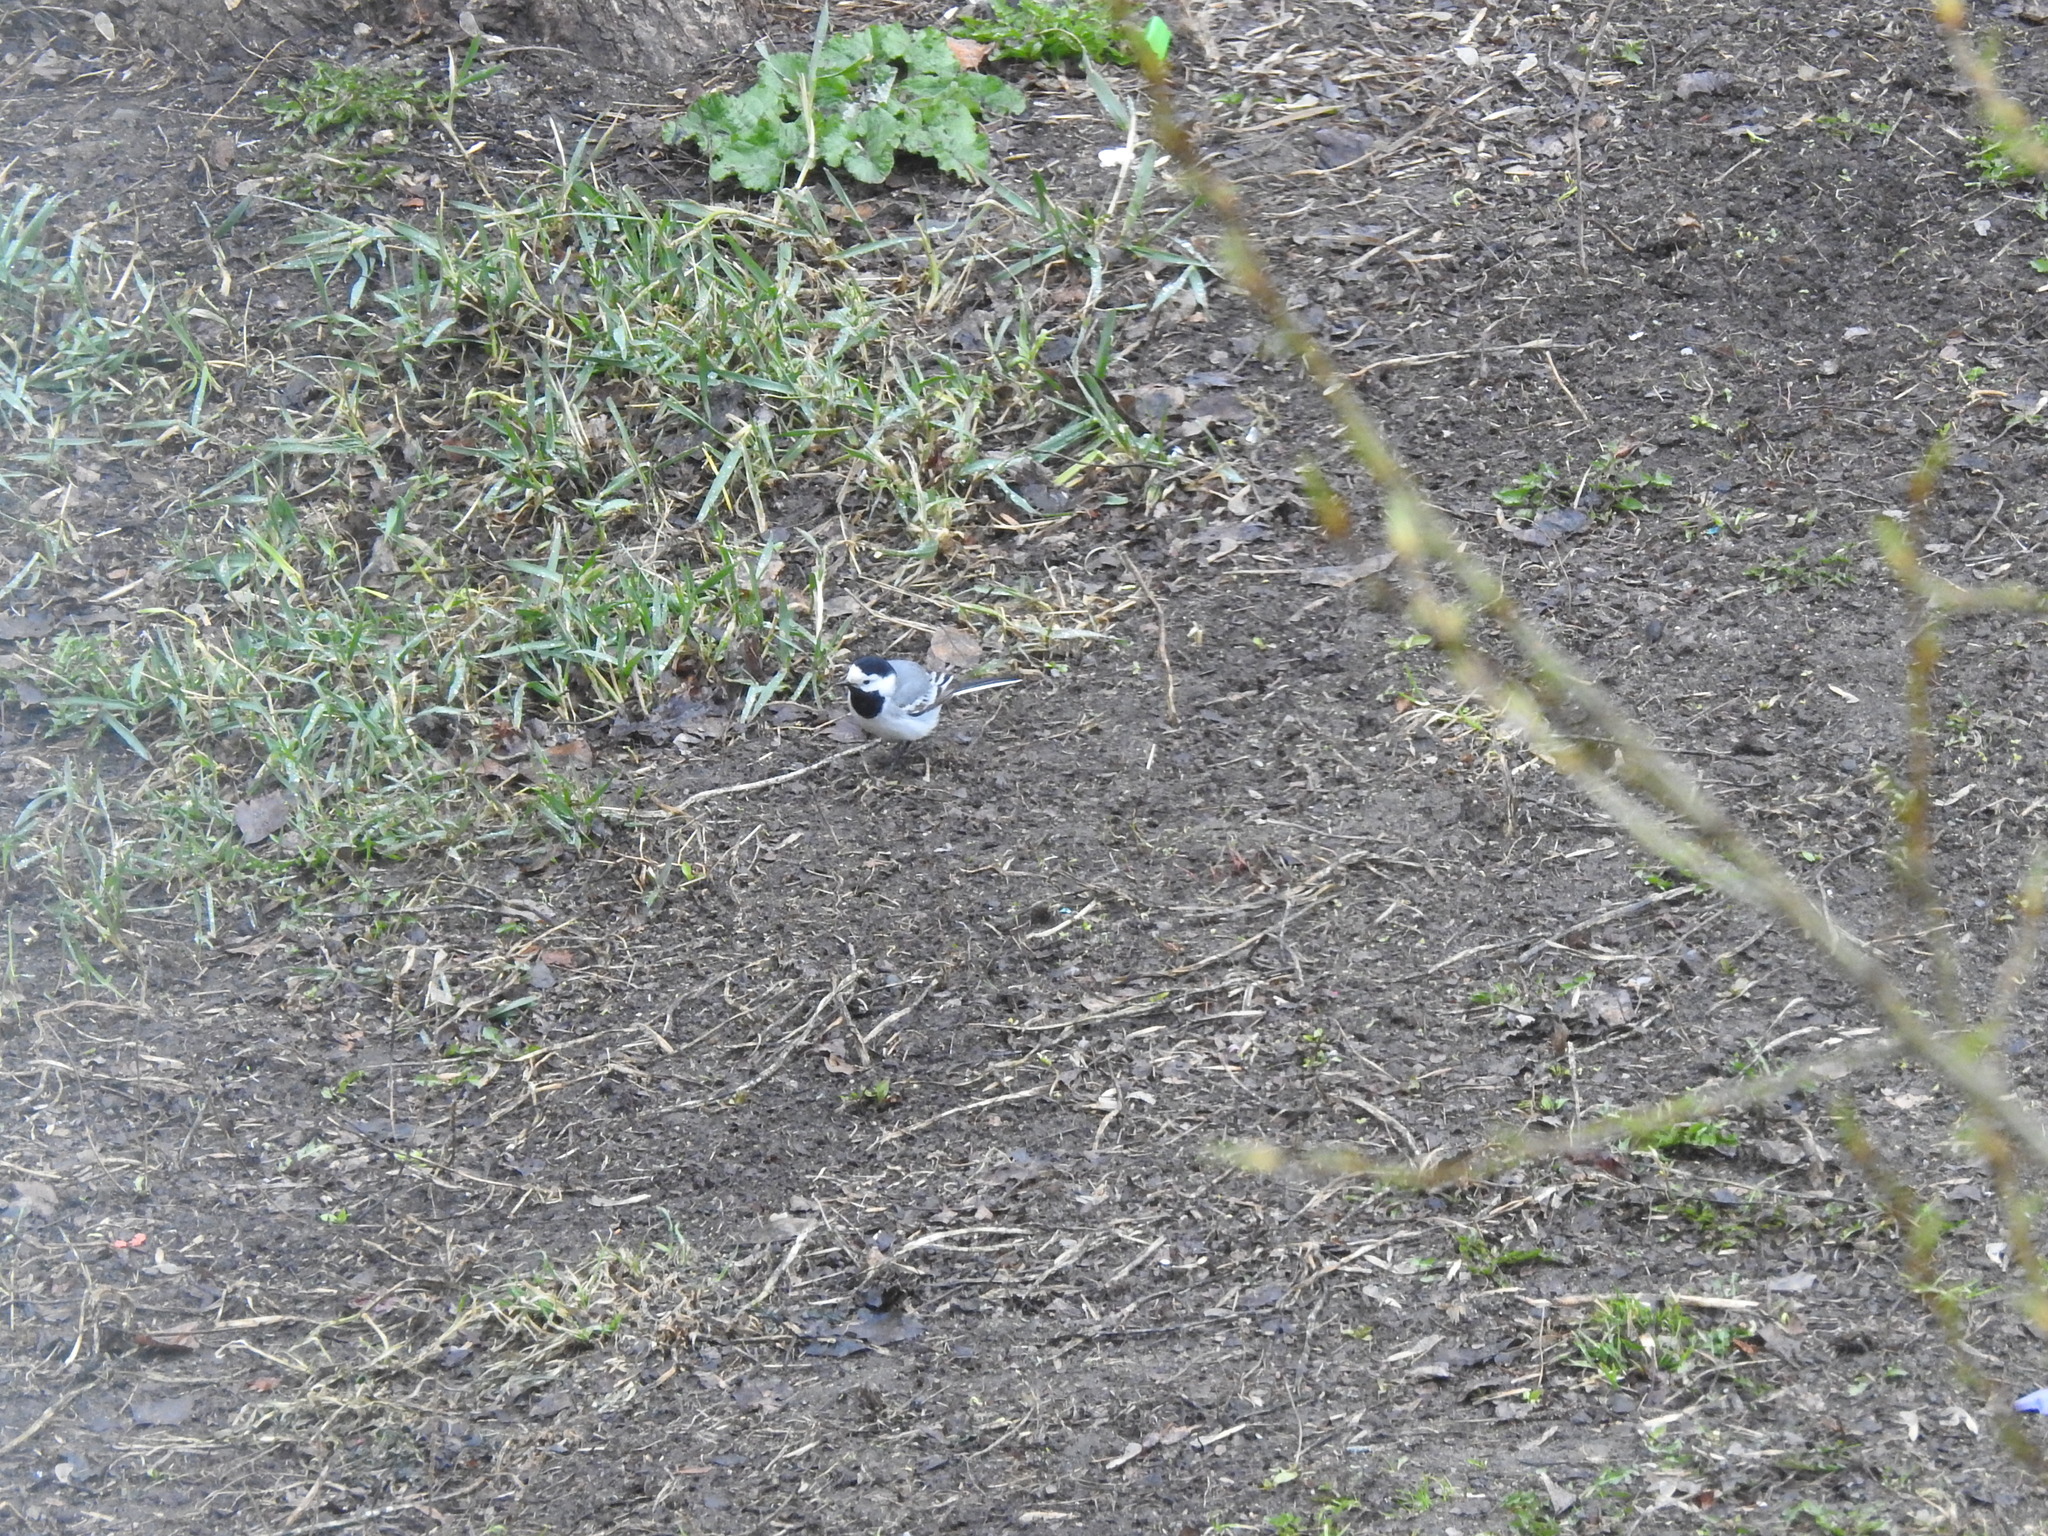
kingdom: Animalia
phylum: Chordata
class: Aves
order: Passeriformes
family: Motacillidae
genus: Motacilla
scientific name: Motacilla alba
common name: White wagtail
